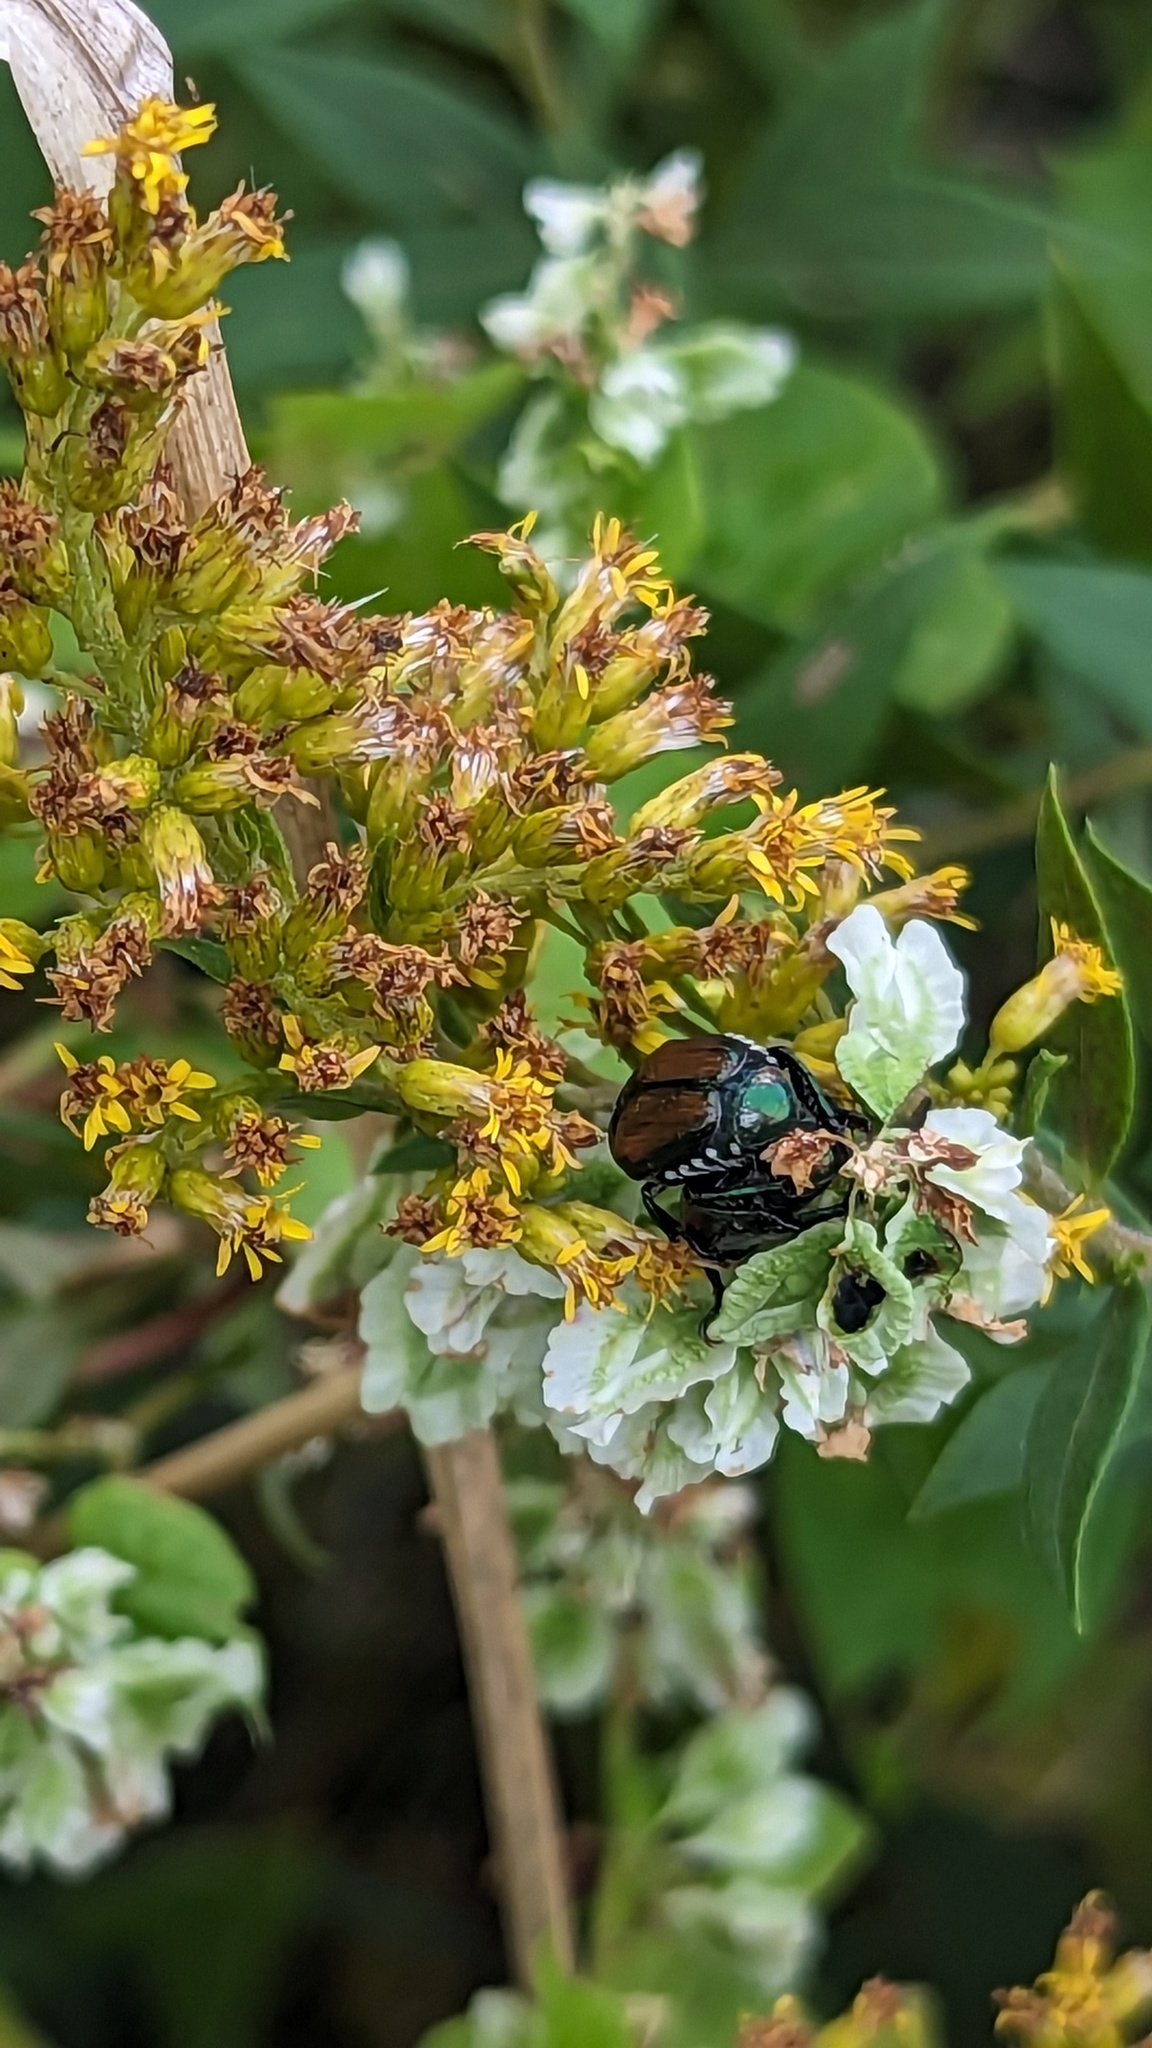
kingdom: Animalia
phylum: Arthropoda
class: Insecta
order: Coleoptera
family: Scarabaeidae
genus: Popillia
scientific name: Popillia japonica
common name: Japanese beetle
